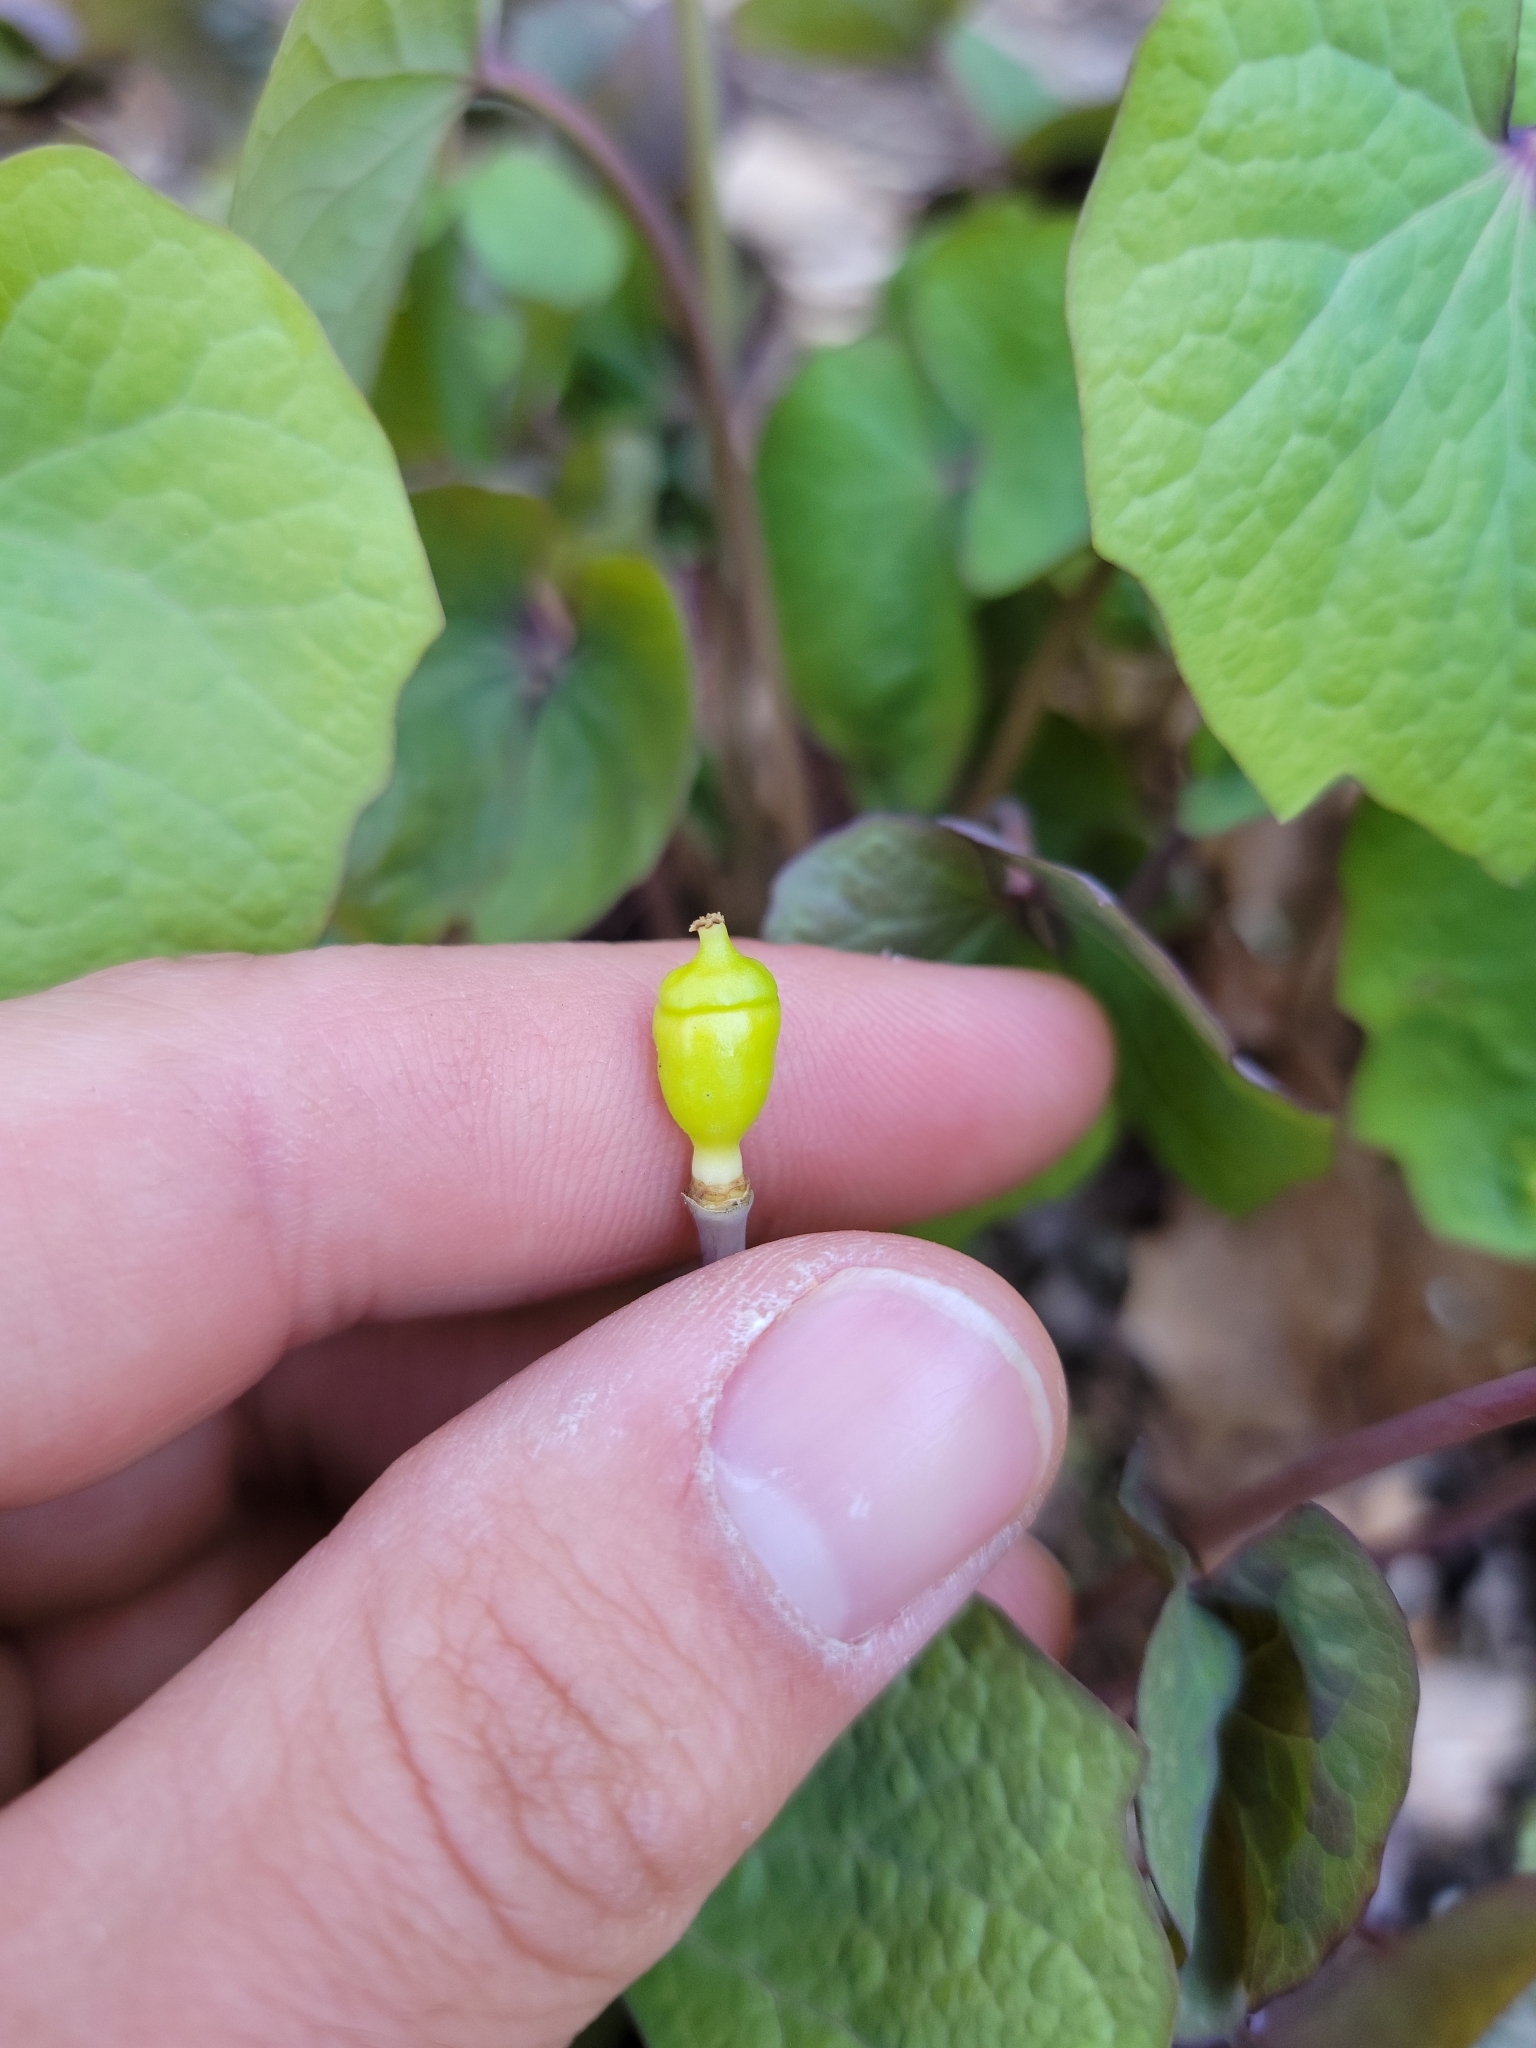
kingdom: Plantae
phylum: Tracheophyta
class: Magnoliopsida
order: Ranunculales
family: Berberidaceae
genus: Jeffersonia
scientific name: Jeffersonia diphylla
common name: Rheumatism-root
